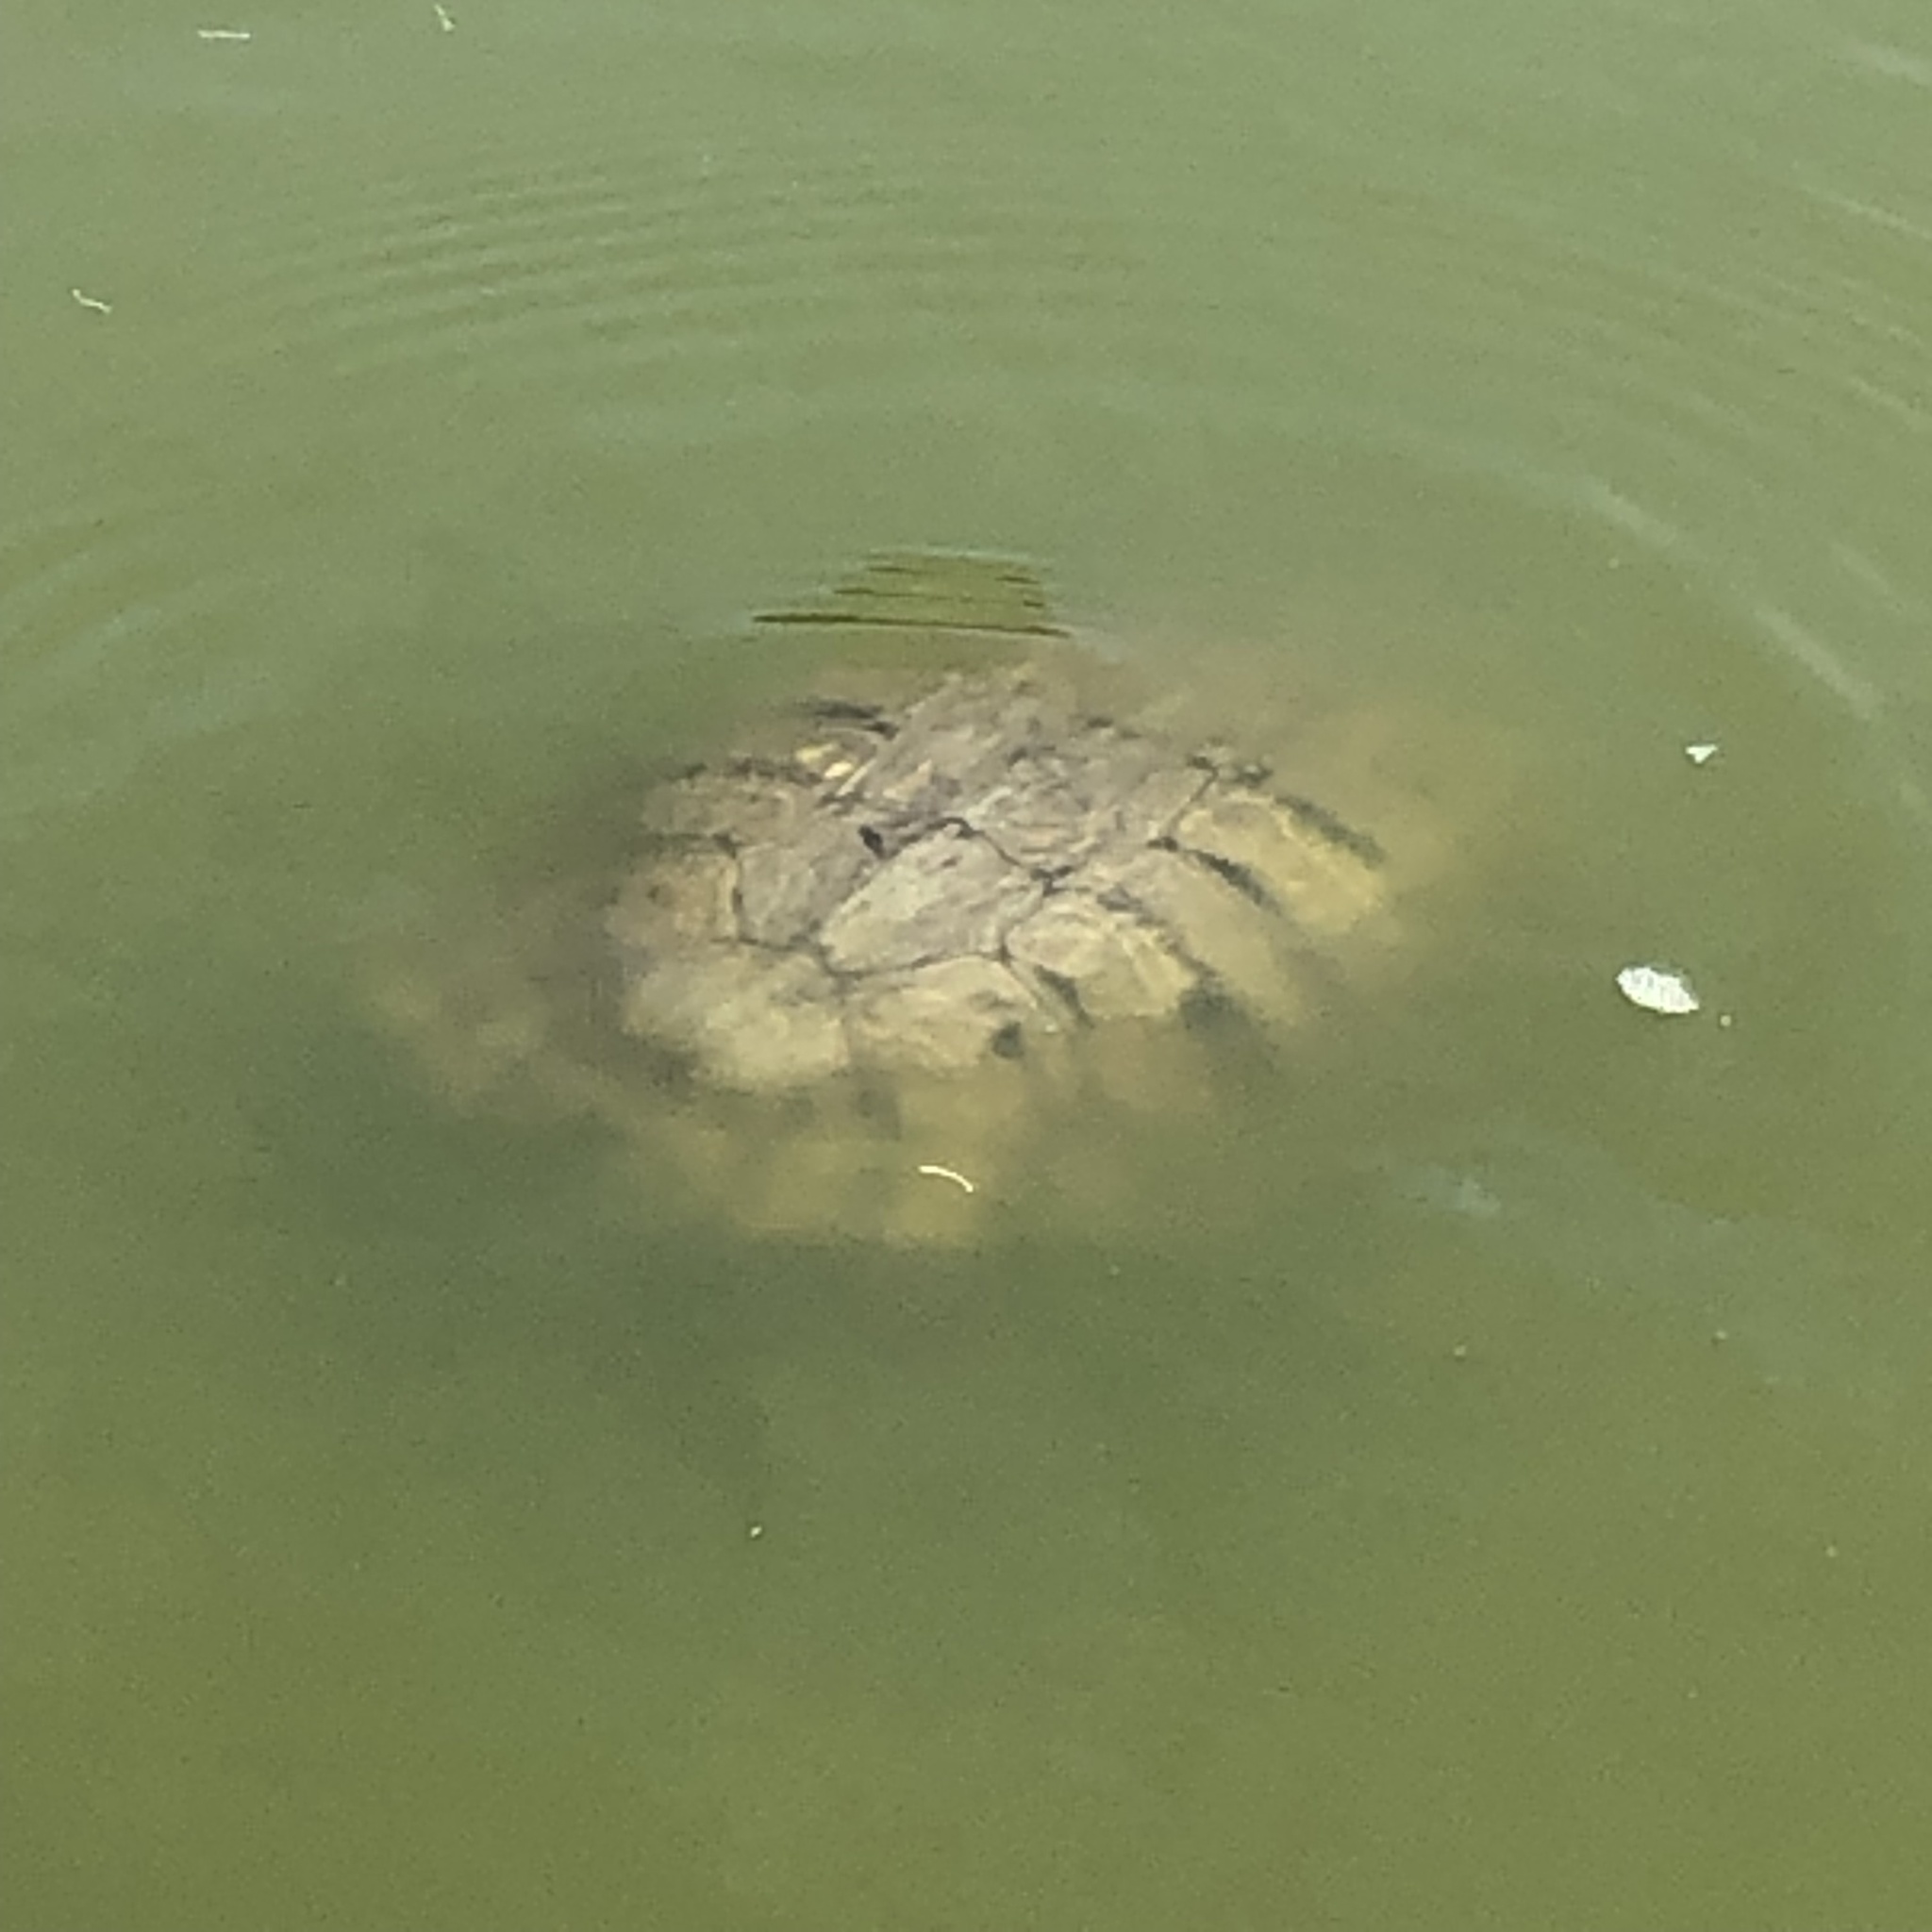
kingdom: Animalia
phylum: Chordata
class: Testudines
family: Emydidae
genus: Trachemys
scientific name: Trachemys scripta
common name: Slider
